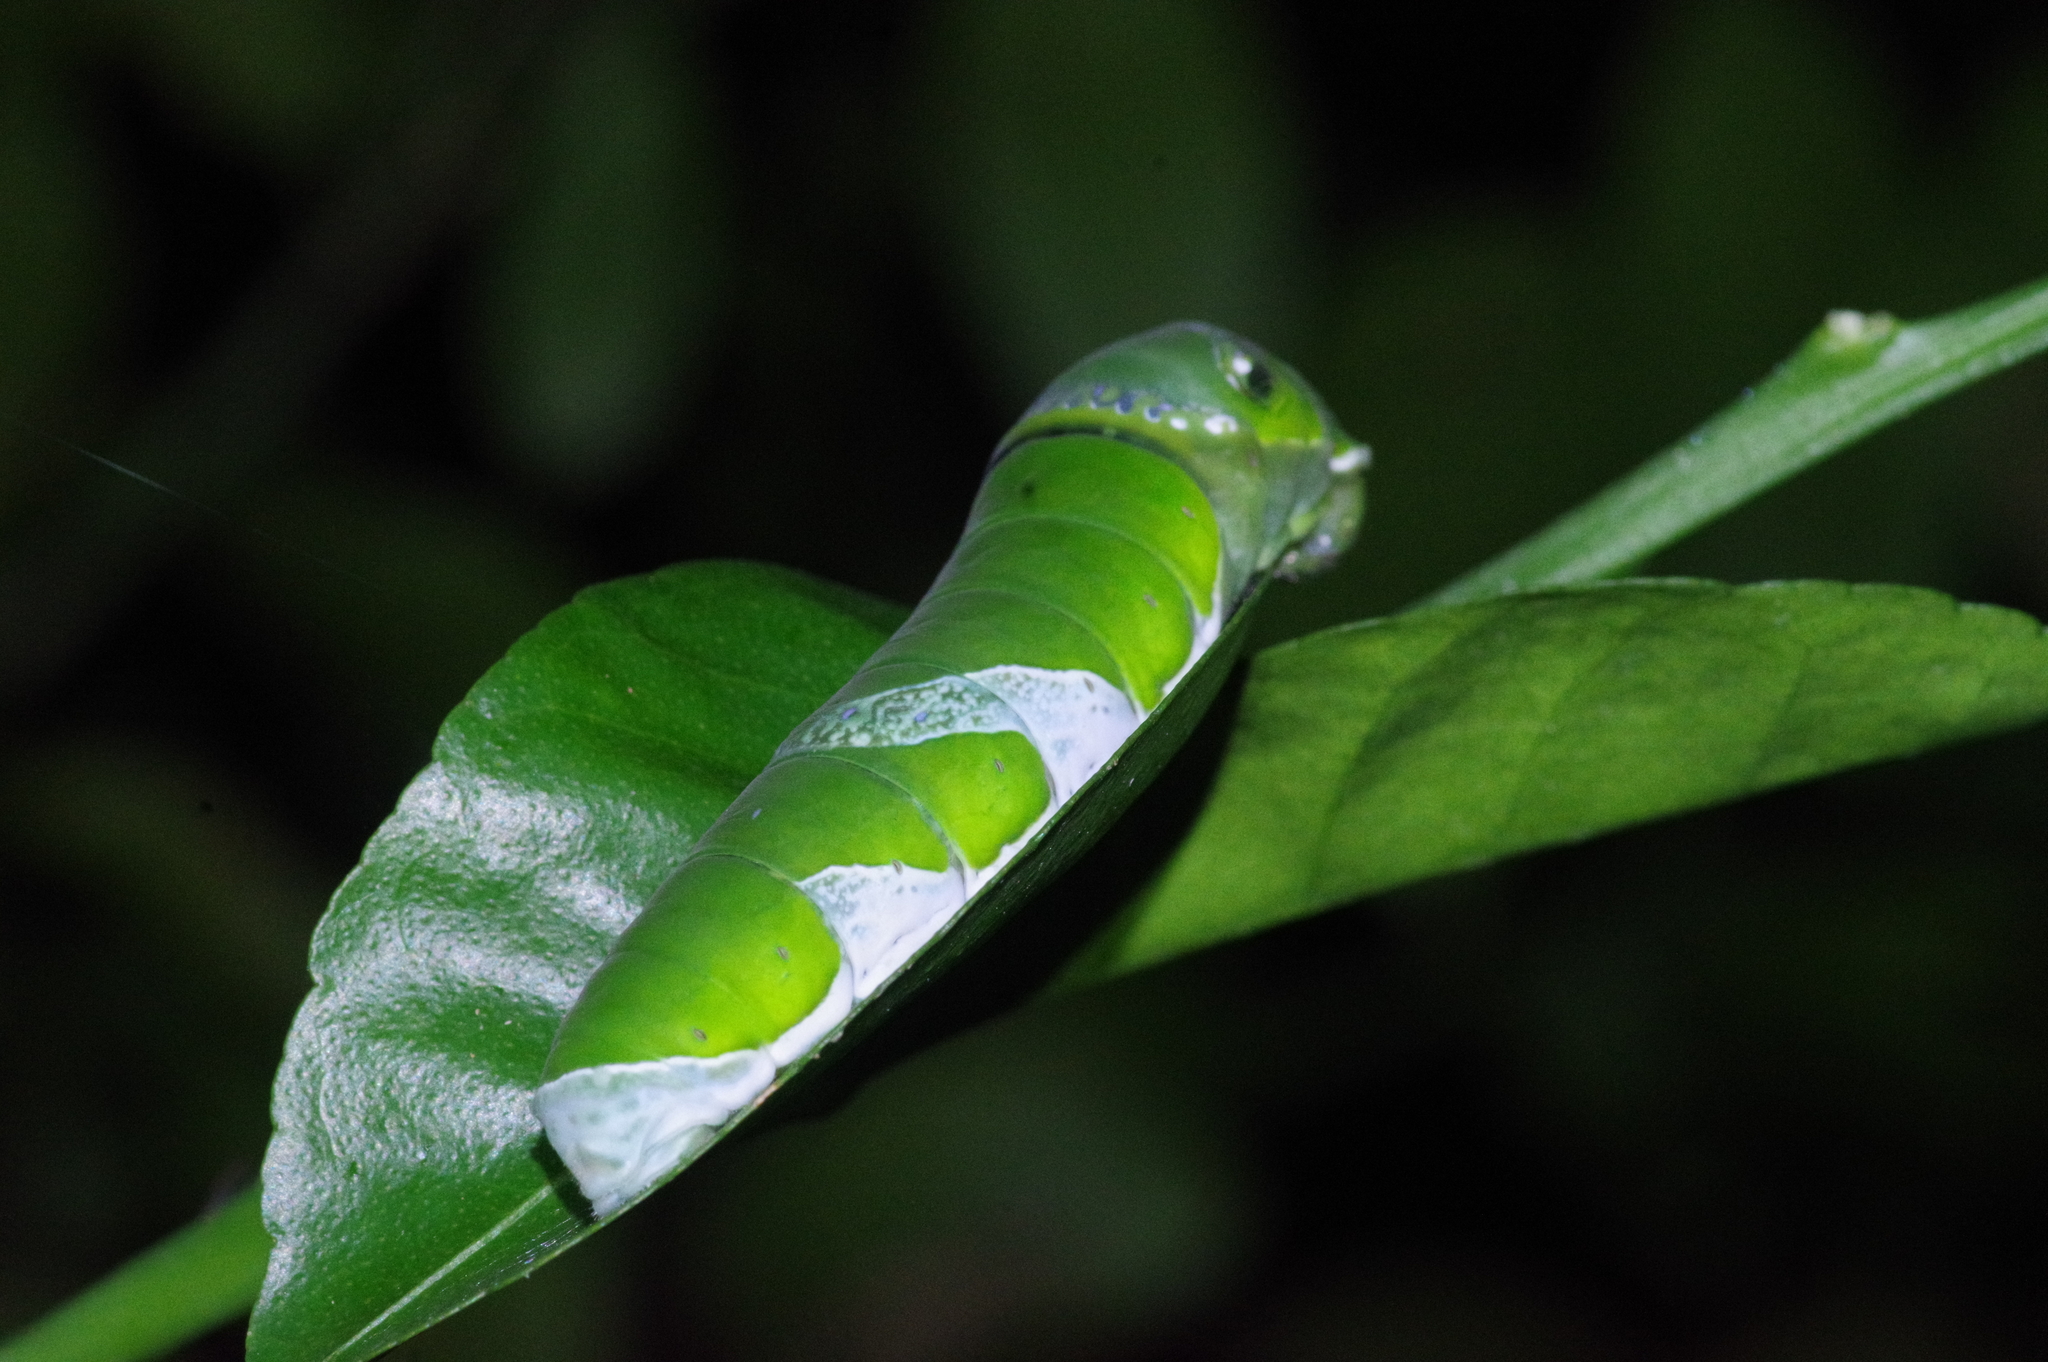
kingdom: Animalia
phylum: Arthropoda
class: Insecta
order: Lepidoptera
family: Papilionidae
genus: Papilio
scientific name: Papilio memnon
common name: Great mormon
